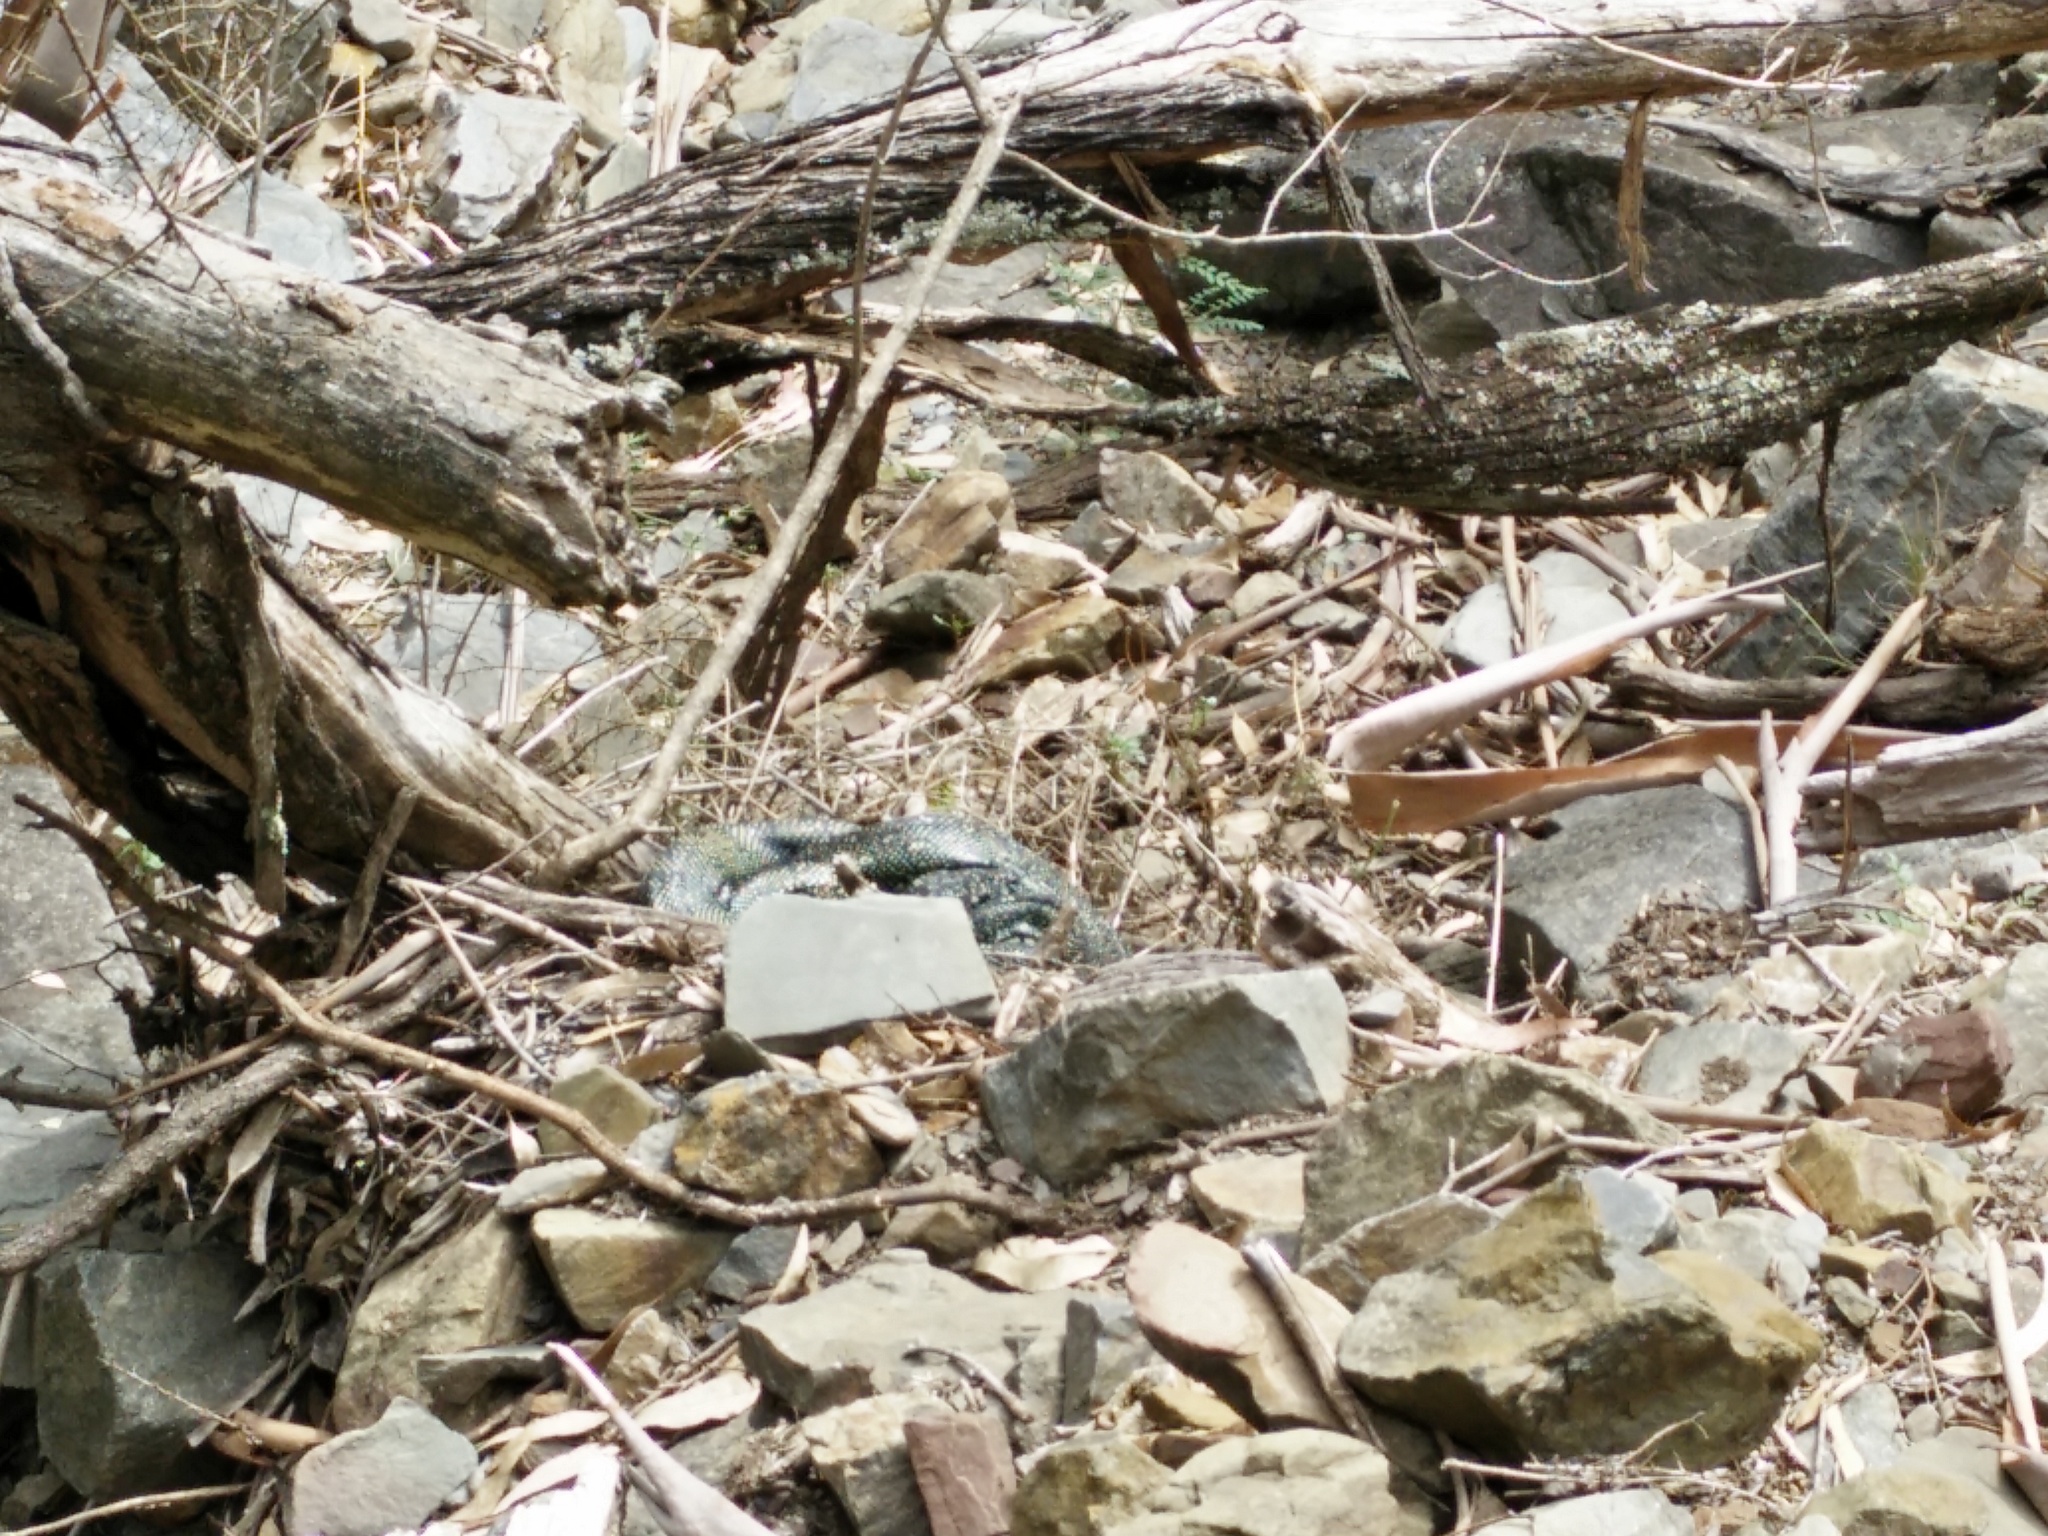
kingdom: Animalia
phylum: Chordata
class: Squamata
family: Pythonidae
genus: Morelia
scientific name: Morelia spilota
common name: Carpet python
